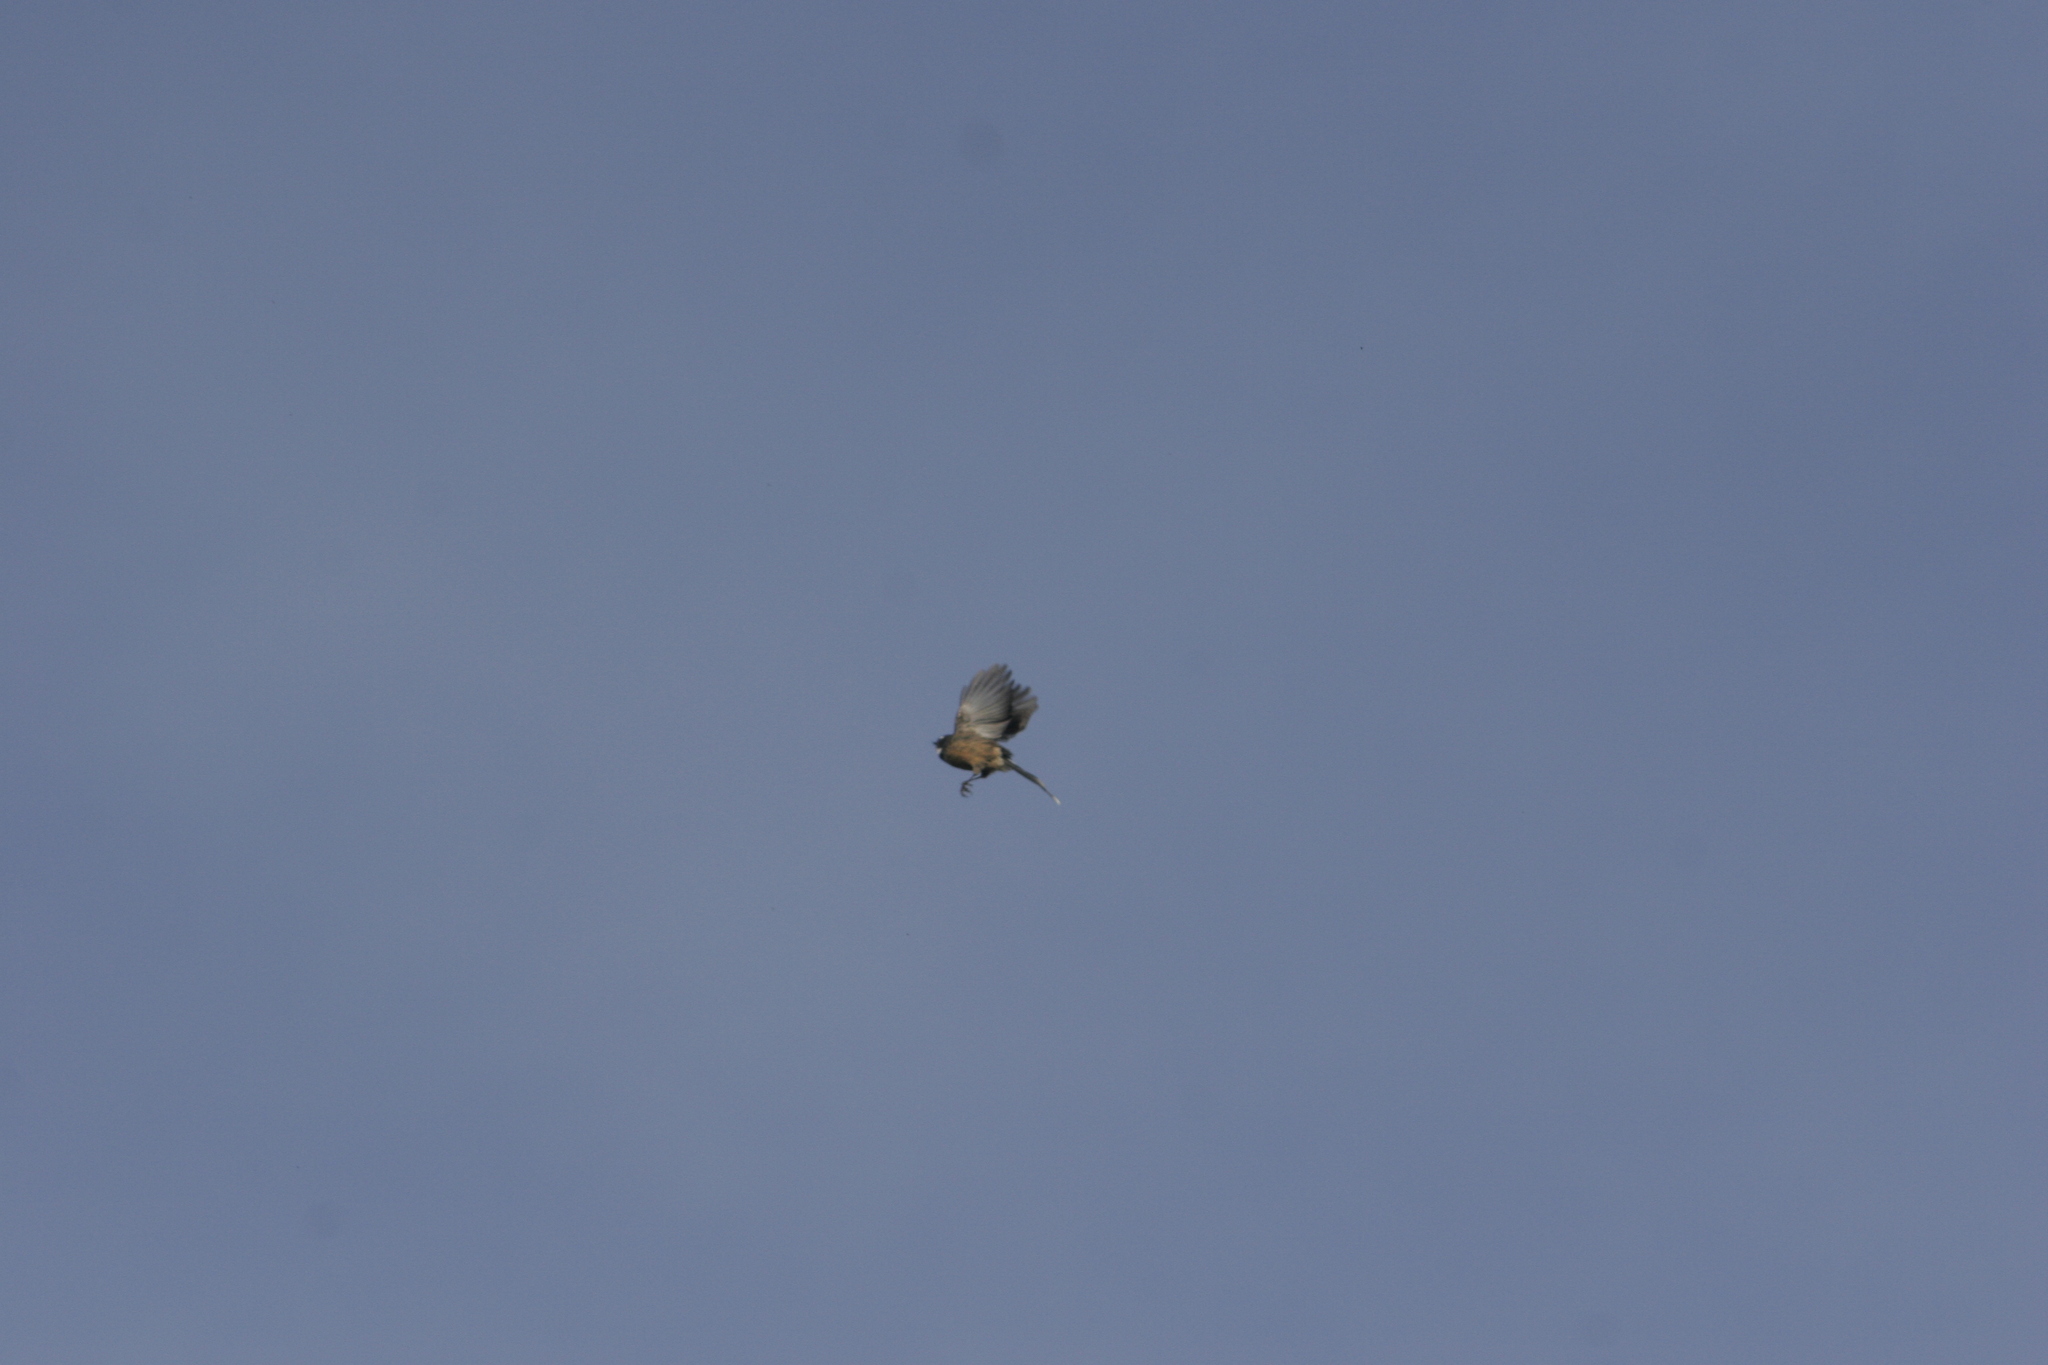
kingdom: Animalia
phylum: Chordata
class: Aves
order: Passeriformes
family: Rhipiduridae
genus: Rhipidura
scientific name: Rhipidura fuliginosa
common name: New zealand fantail
